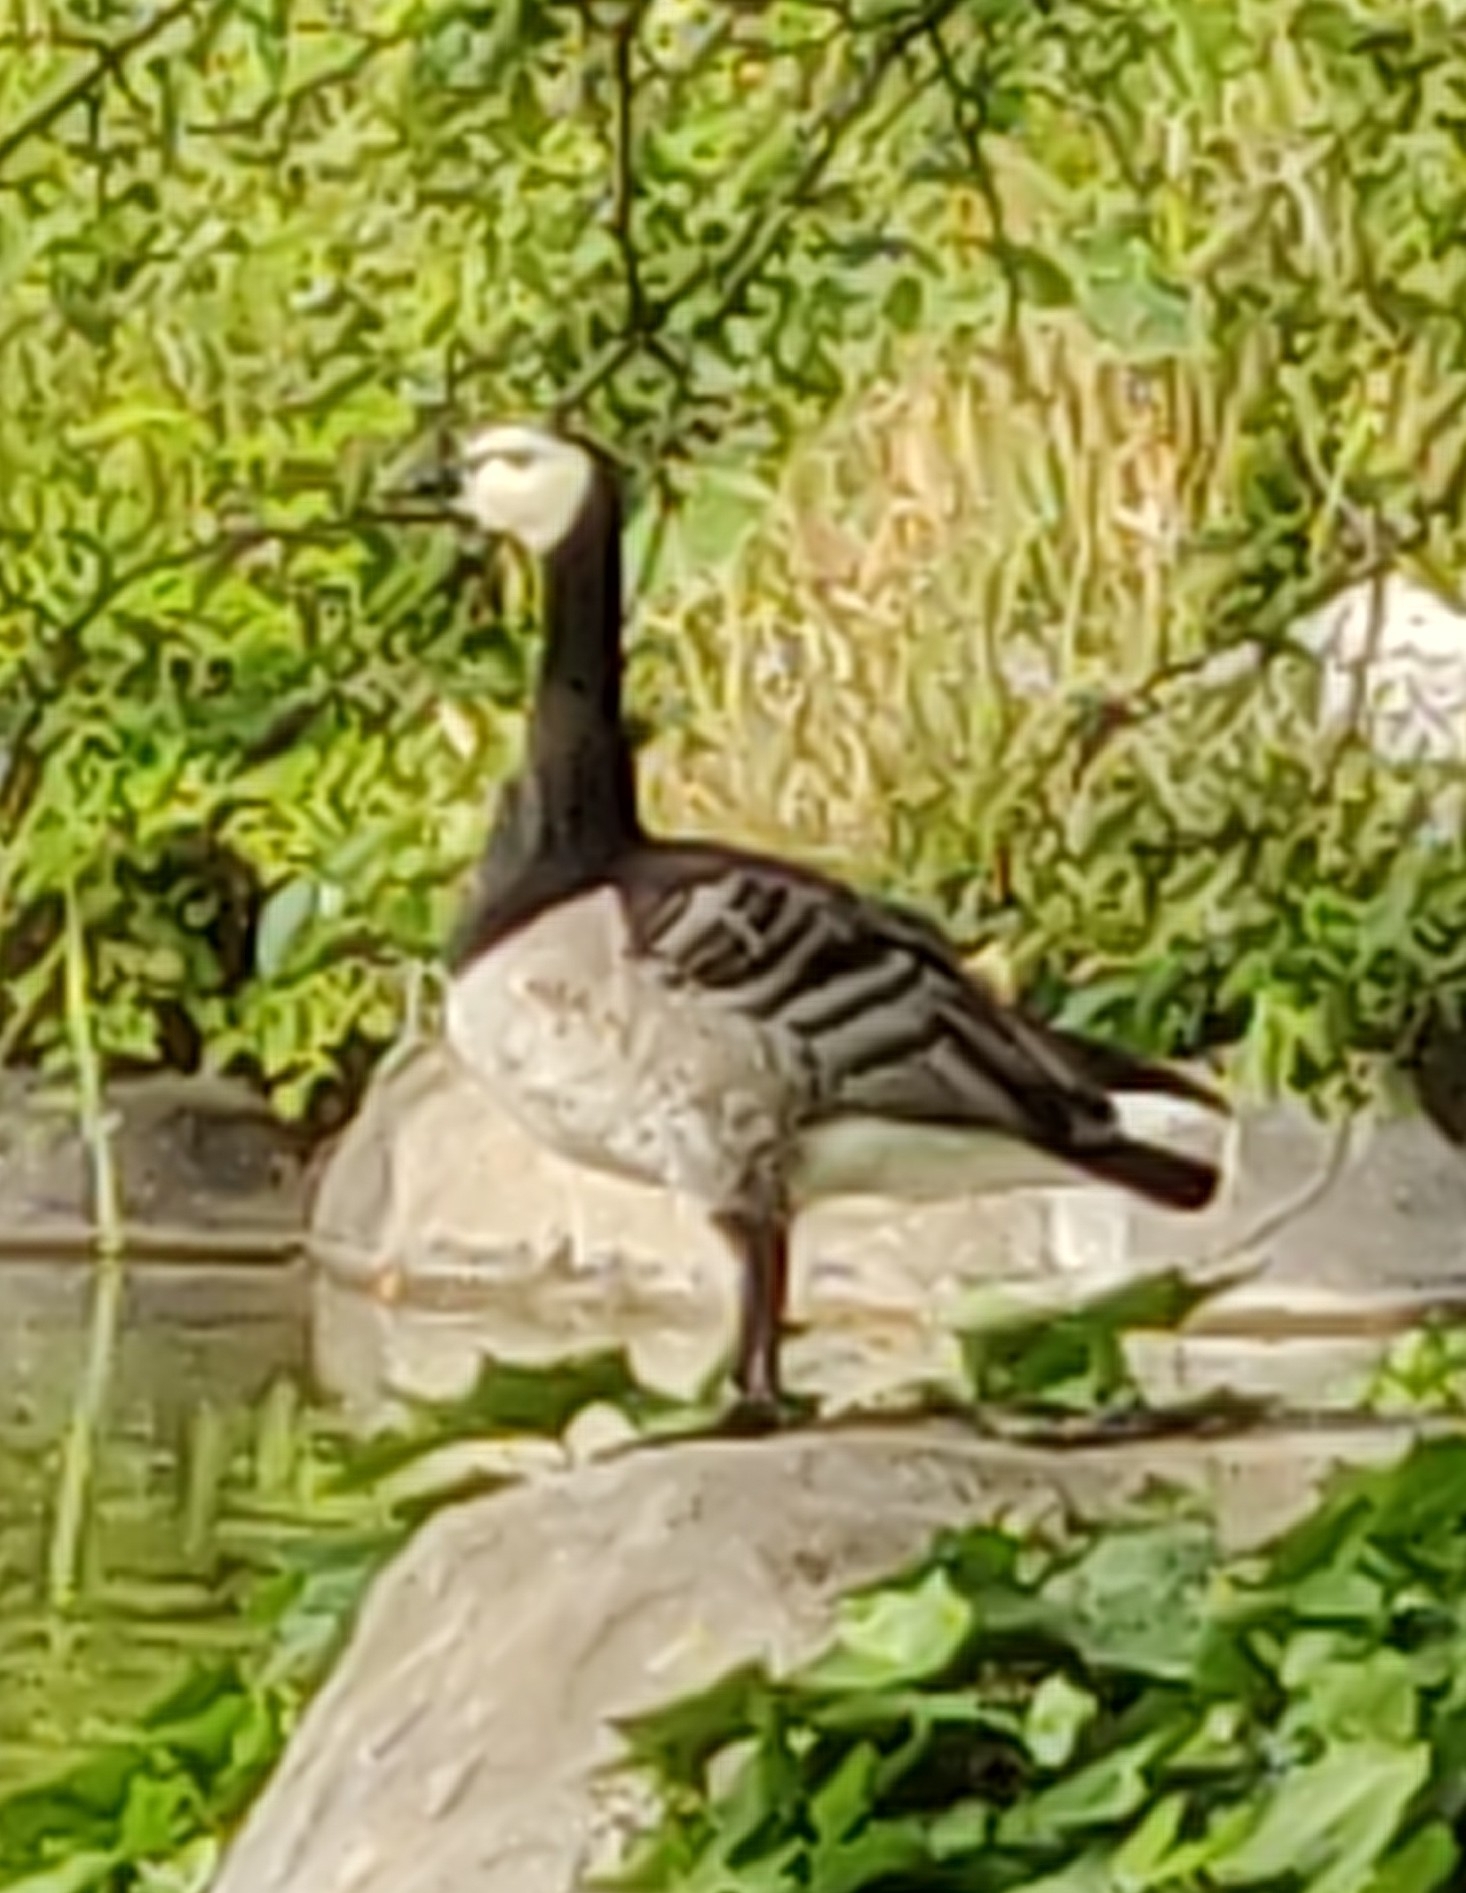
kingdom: Animalia
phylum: Chordata
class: Aves
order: Anseriformes
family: Anatidae
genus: Branta
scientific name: Branta leucopsis
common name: Barnacle goose
